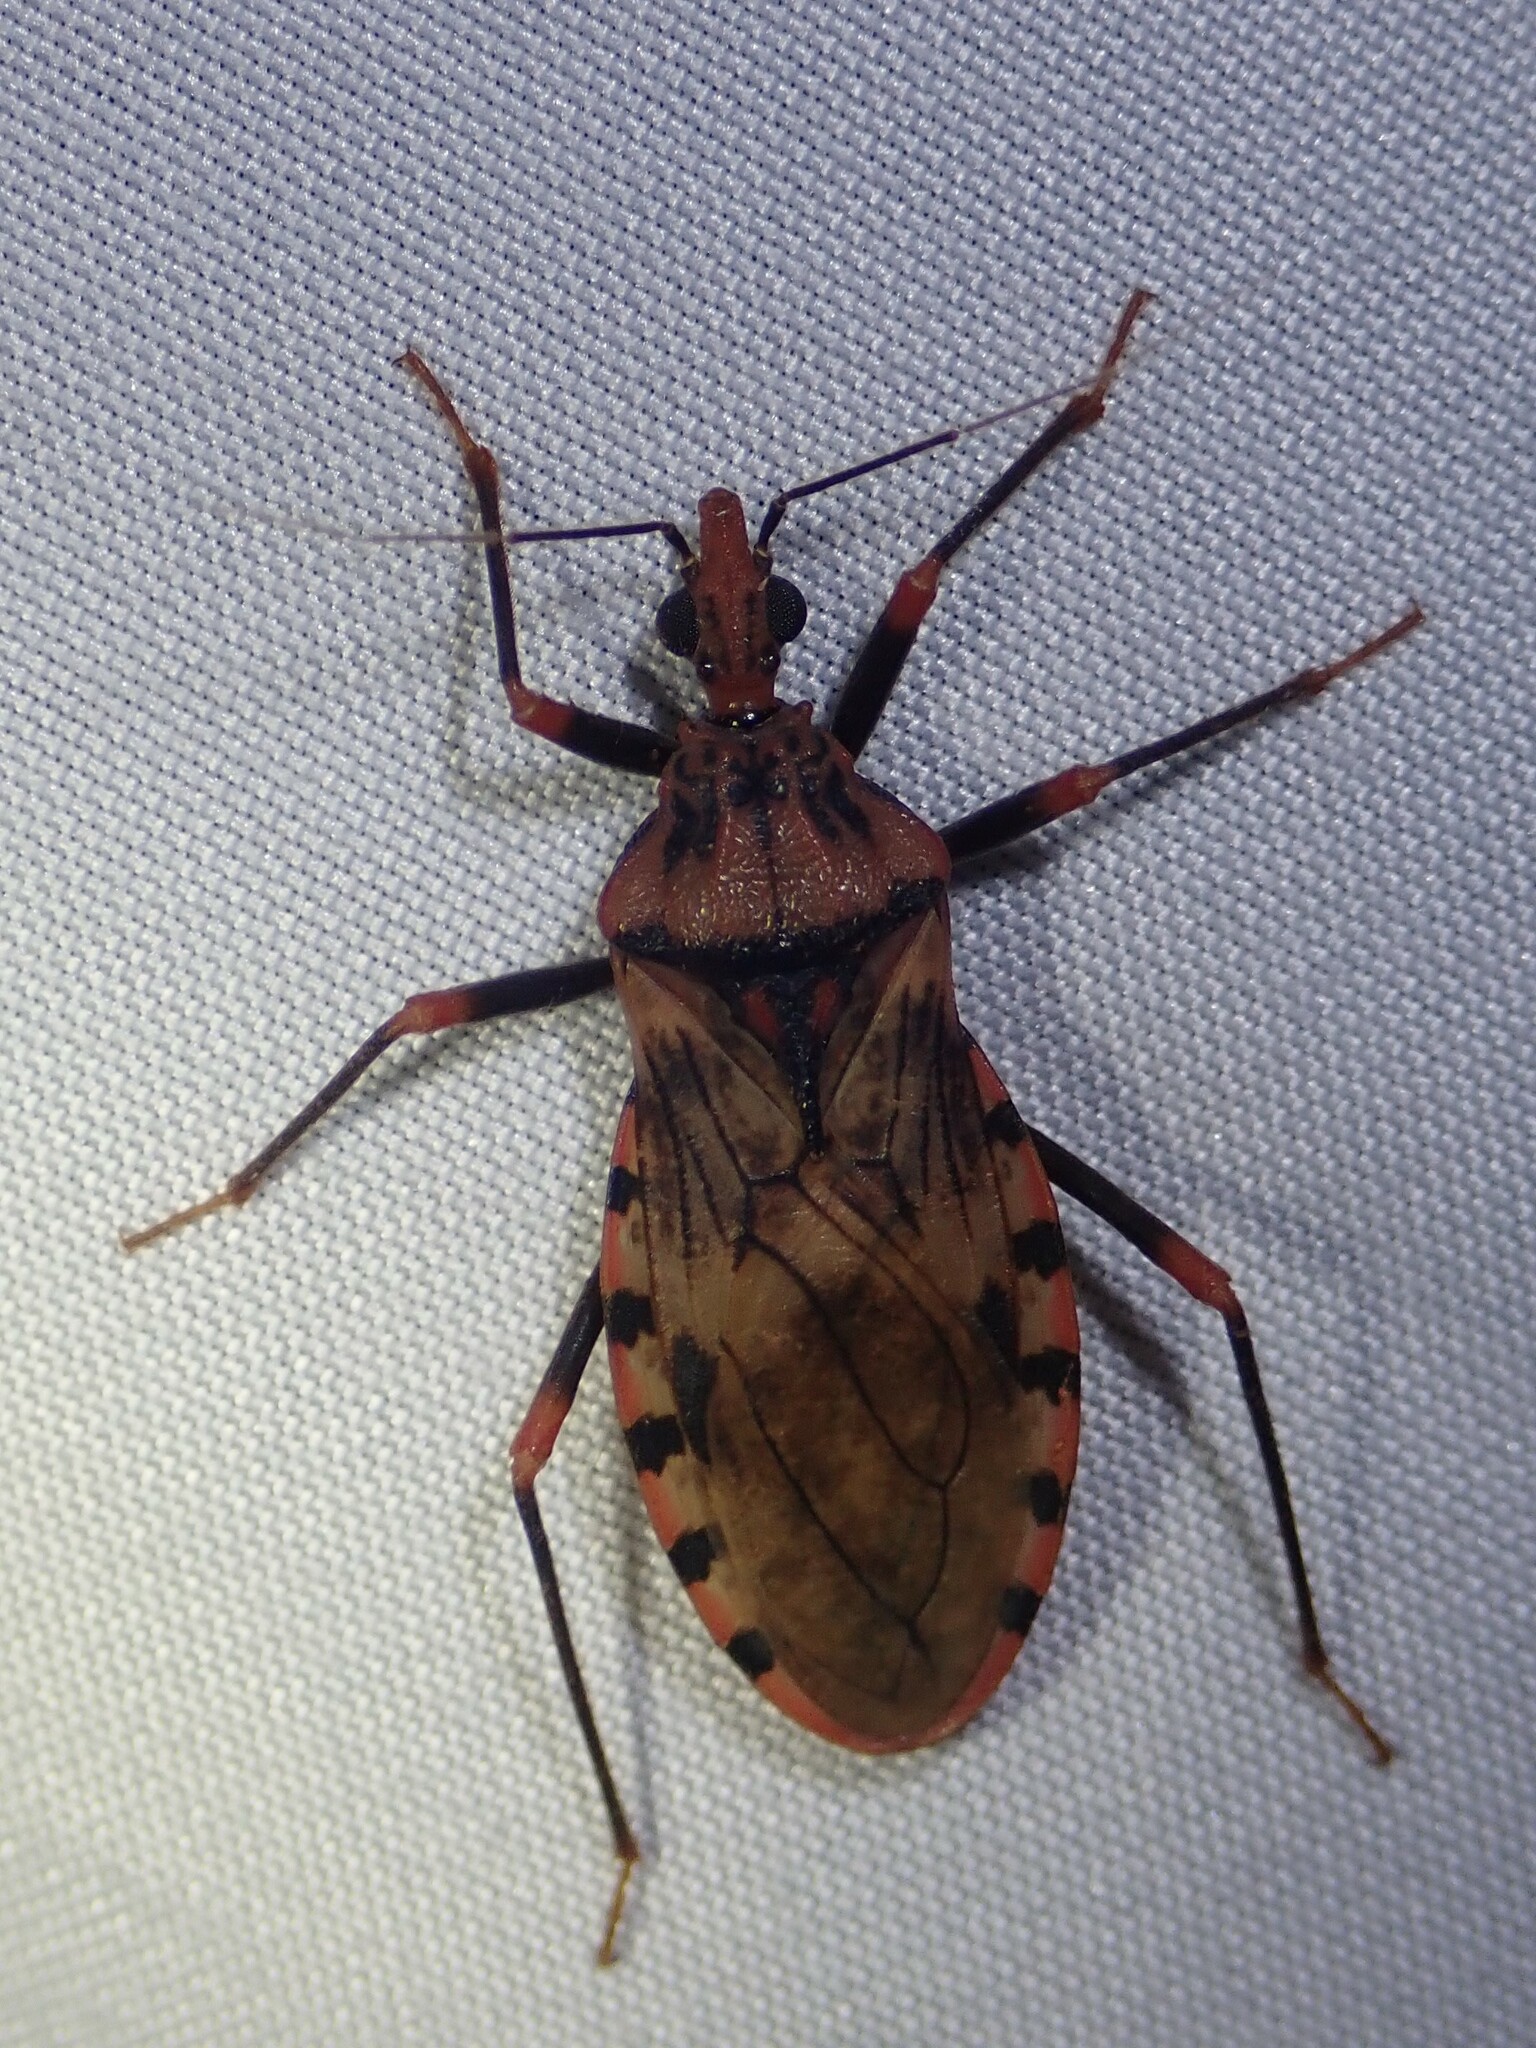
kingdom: Animalia
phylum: Arthropoda
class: Insecta
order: Hemiptera
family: Reduviidae
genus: Panstrongylus
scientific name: Panstrongylus geniculatus
